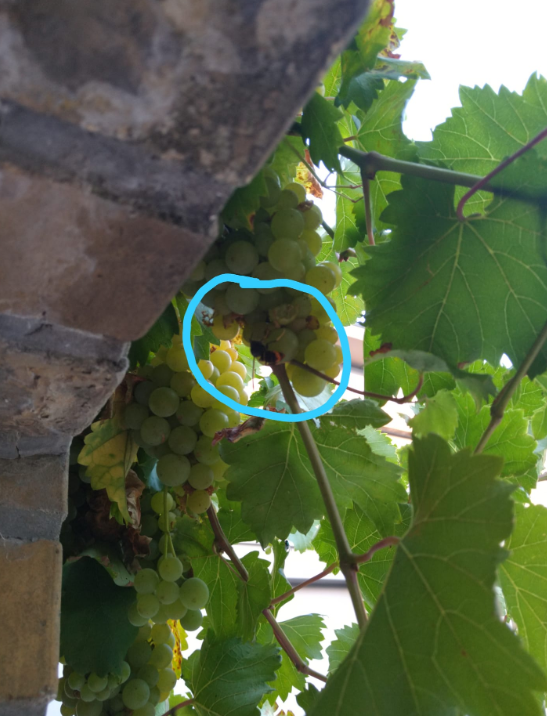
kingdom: Animalia
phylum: Arthropoda
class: Insecta
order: Hymenoptera
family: Vespidae
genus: Vespa
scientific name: Vespa velutina
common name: Asian hornet
